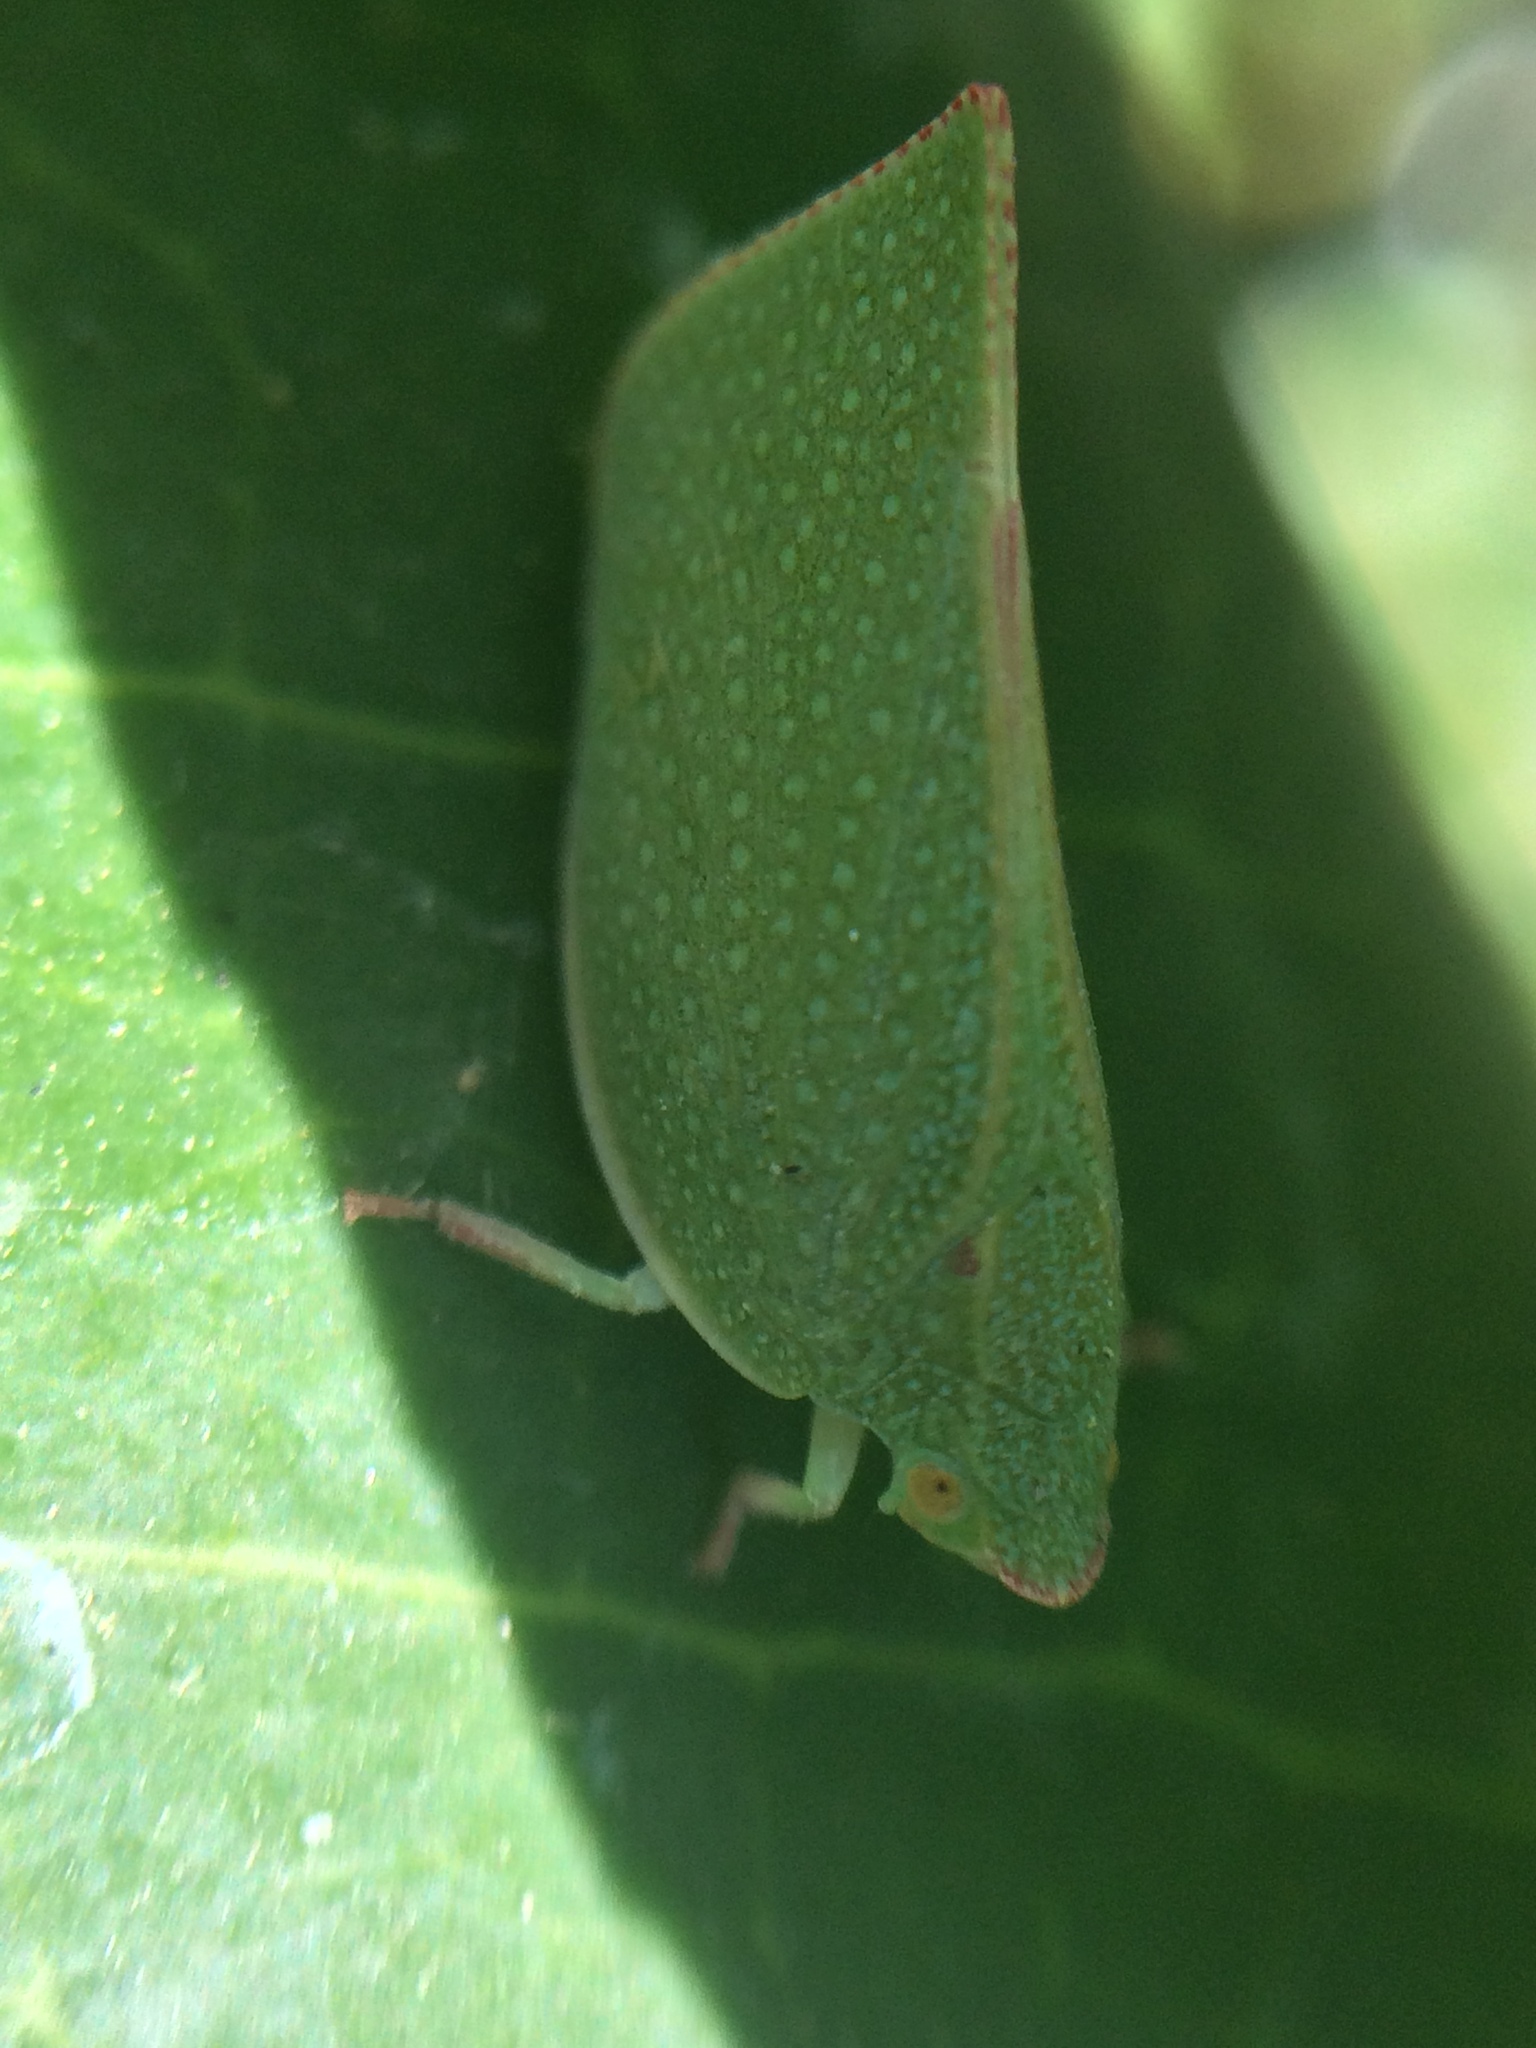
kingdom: Animalia
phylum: Arthropoda
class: Insecta
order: Hemiptera
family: Flatidae
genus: Siphanta
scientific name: Siphanta acuta
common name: Torpedo bug
